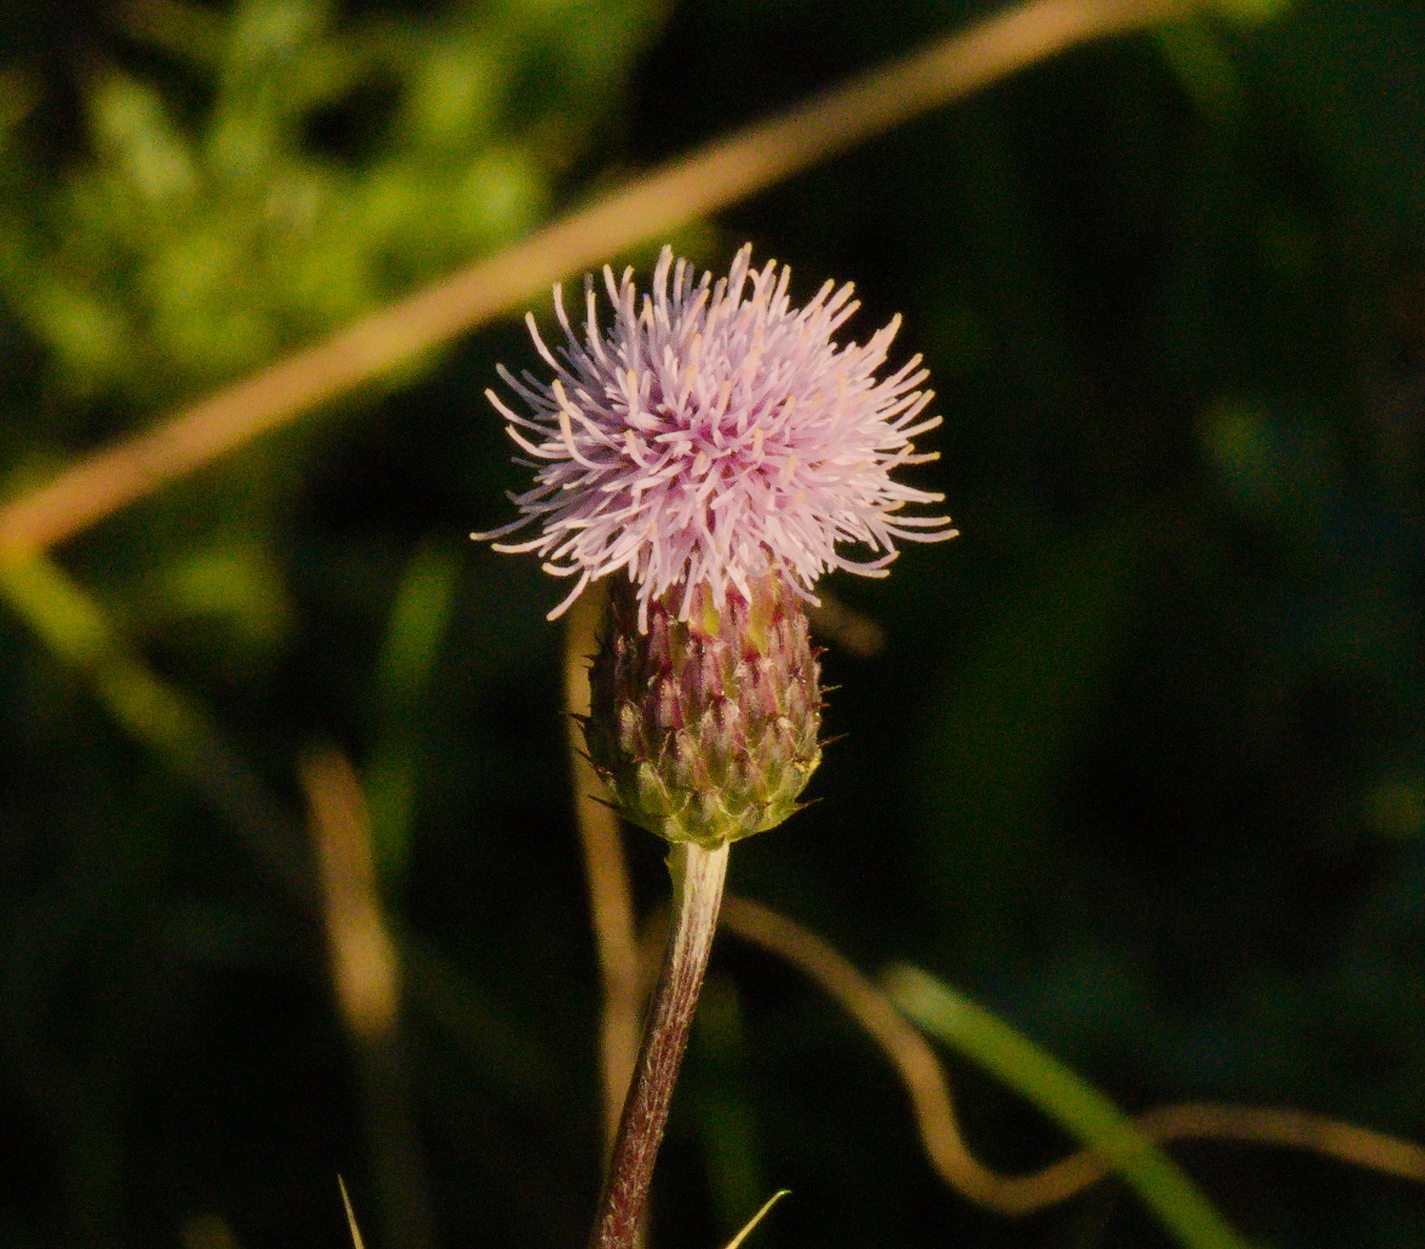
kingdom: Plantae
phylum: Tracheophyta
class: Magnoliopsida
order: Asterales
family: Asteraceae
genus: Cirsium
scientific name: Cirsium arvense
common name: Creeping thistle
